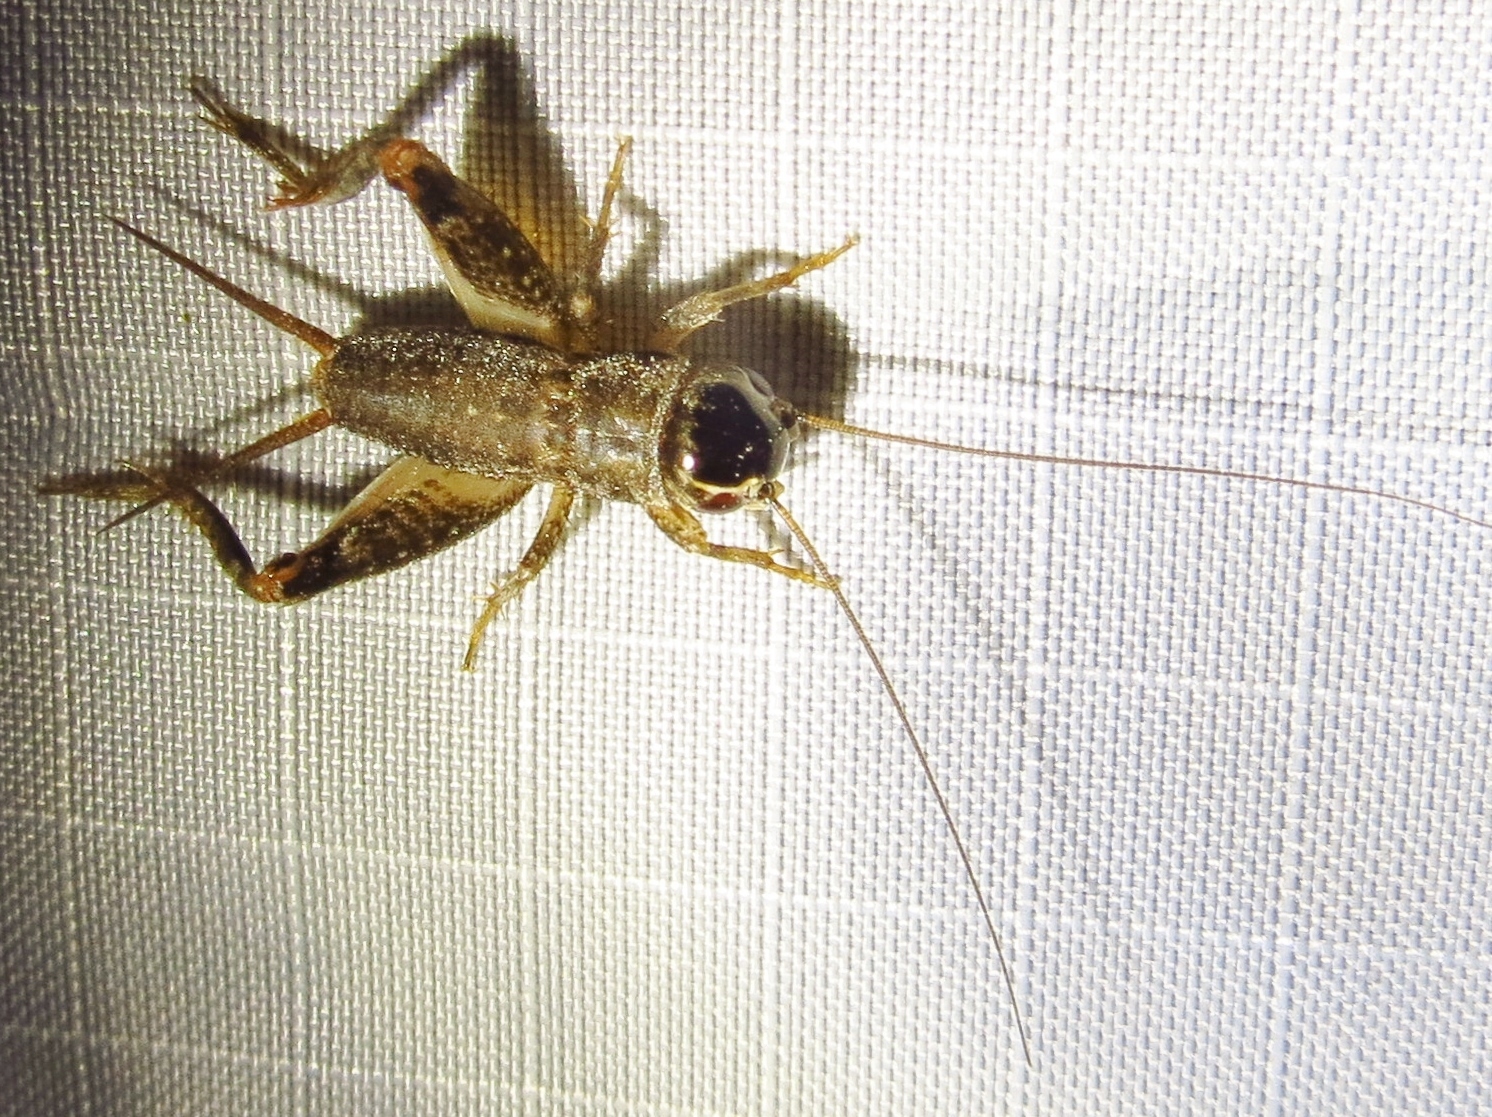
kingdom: Animalia
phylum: Arthropoda
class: Insecta
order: Orthoptera
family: Gryllidae
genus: Miogryllus
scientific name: Miogryllus verticalis
